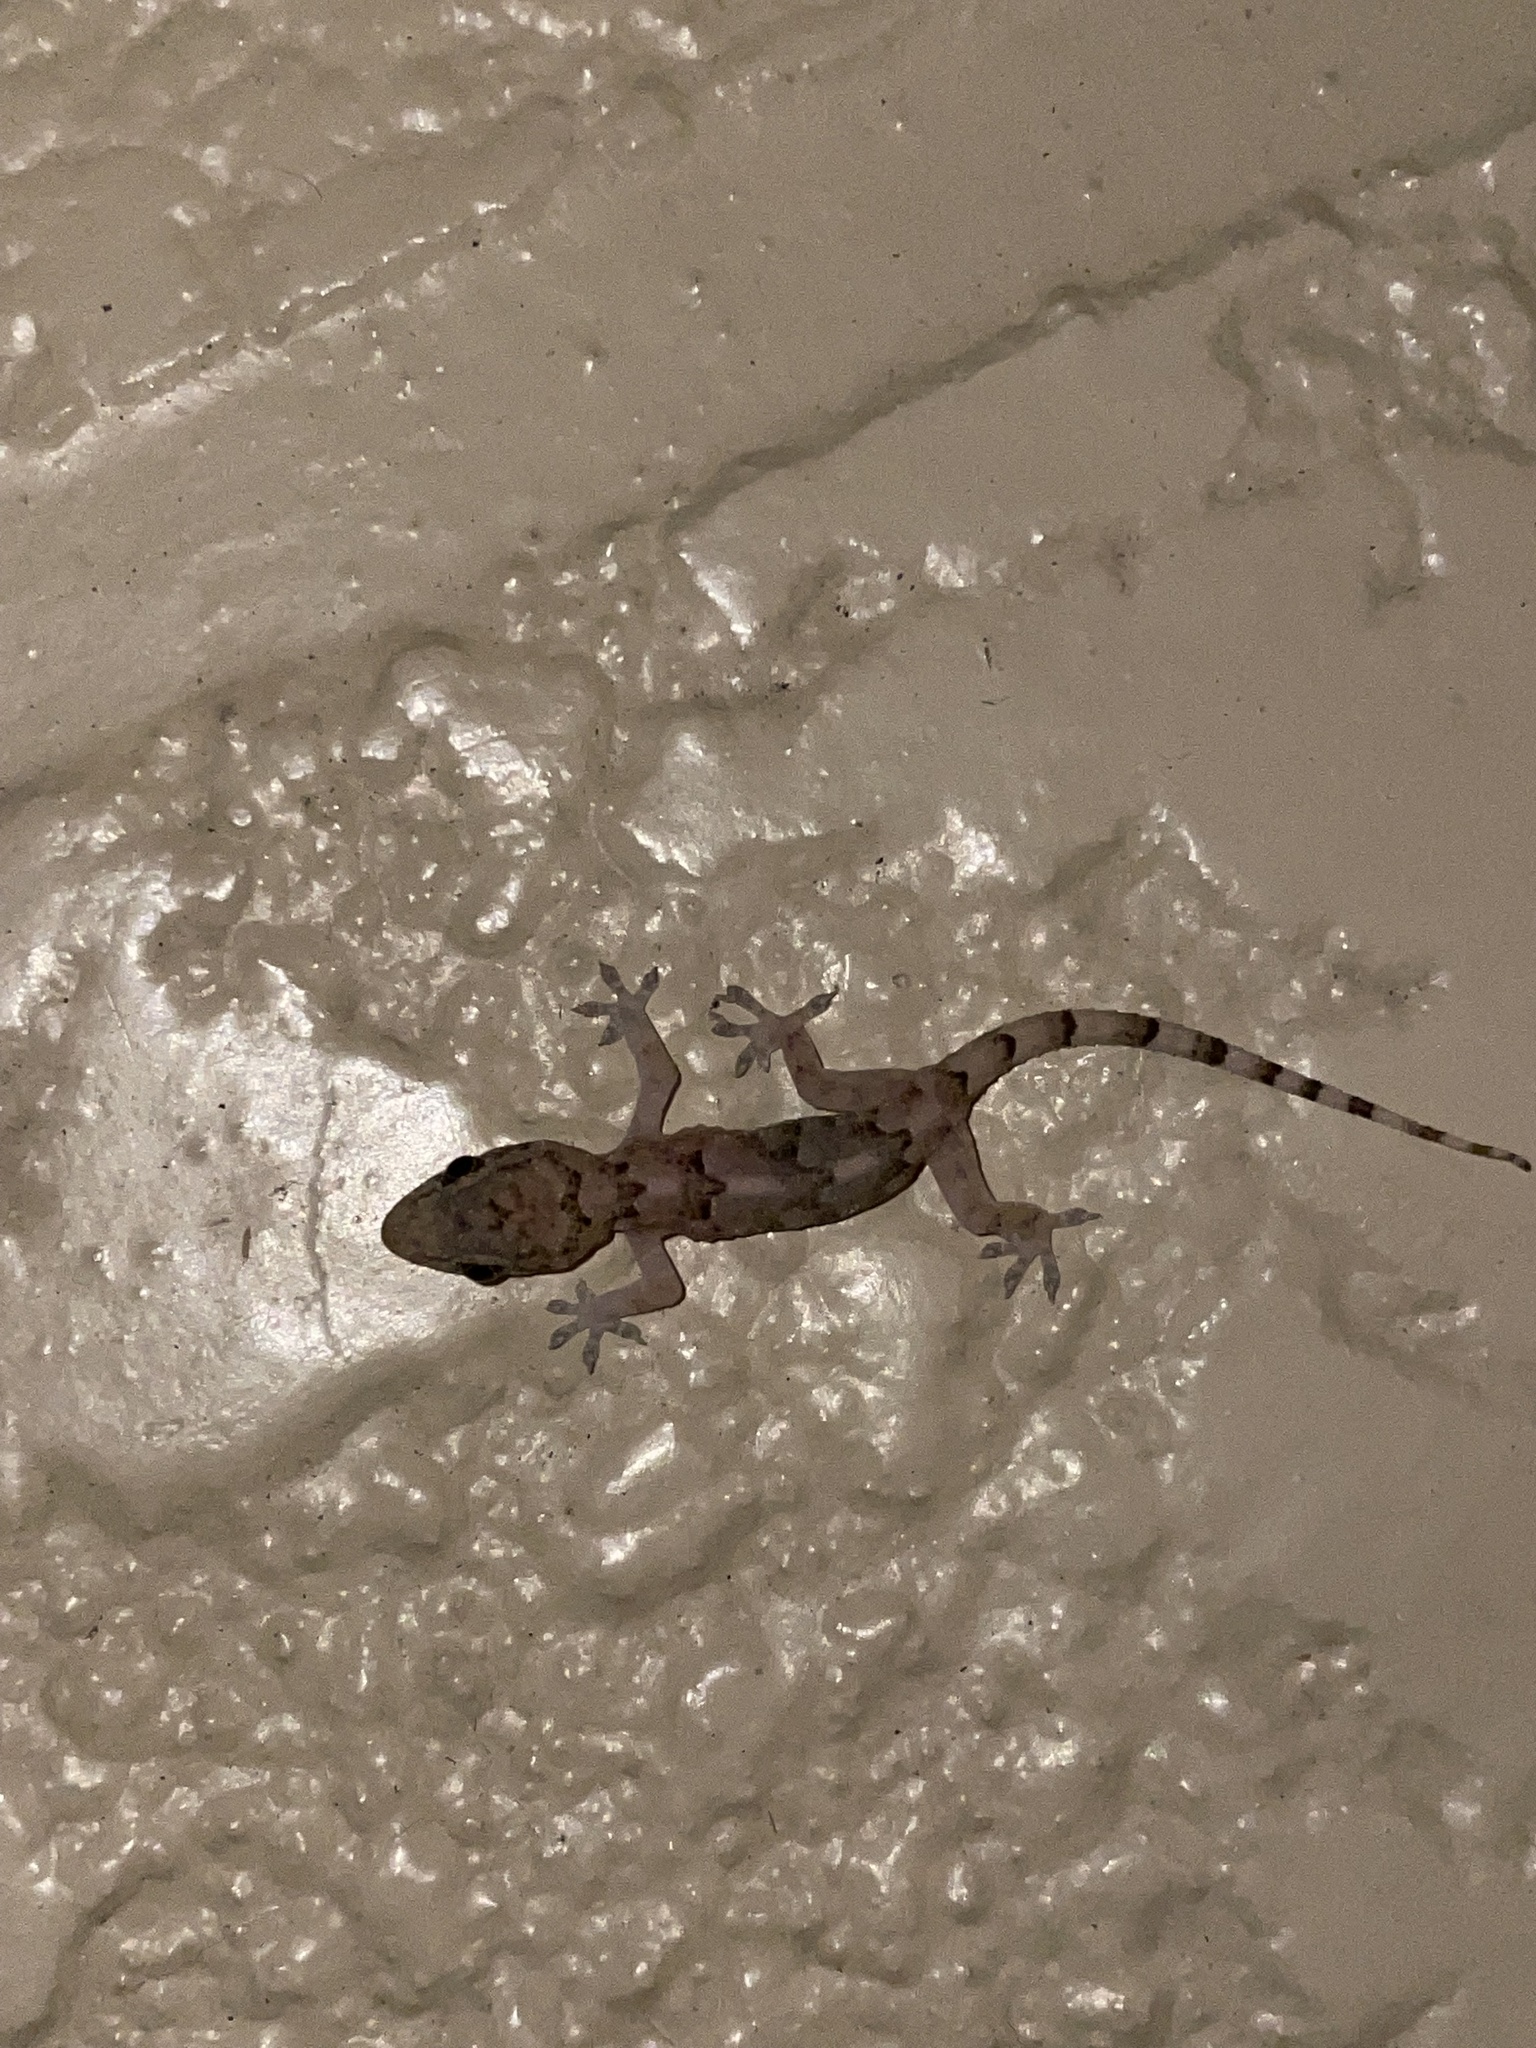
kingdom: Animalia
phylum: Chordata
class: Squamata
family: Gekkonidae
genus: Hemidactylus
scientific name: Hemidactylus mabouia
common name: House gecko
